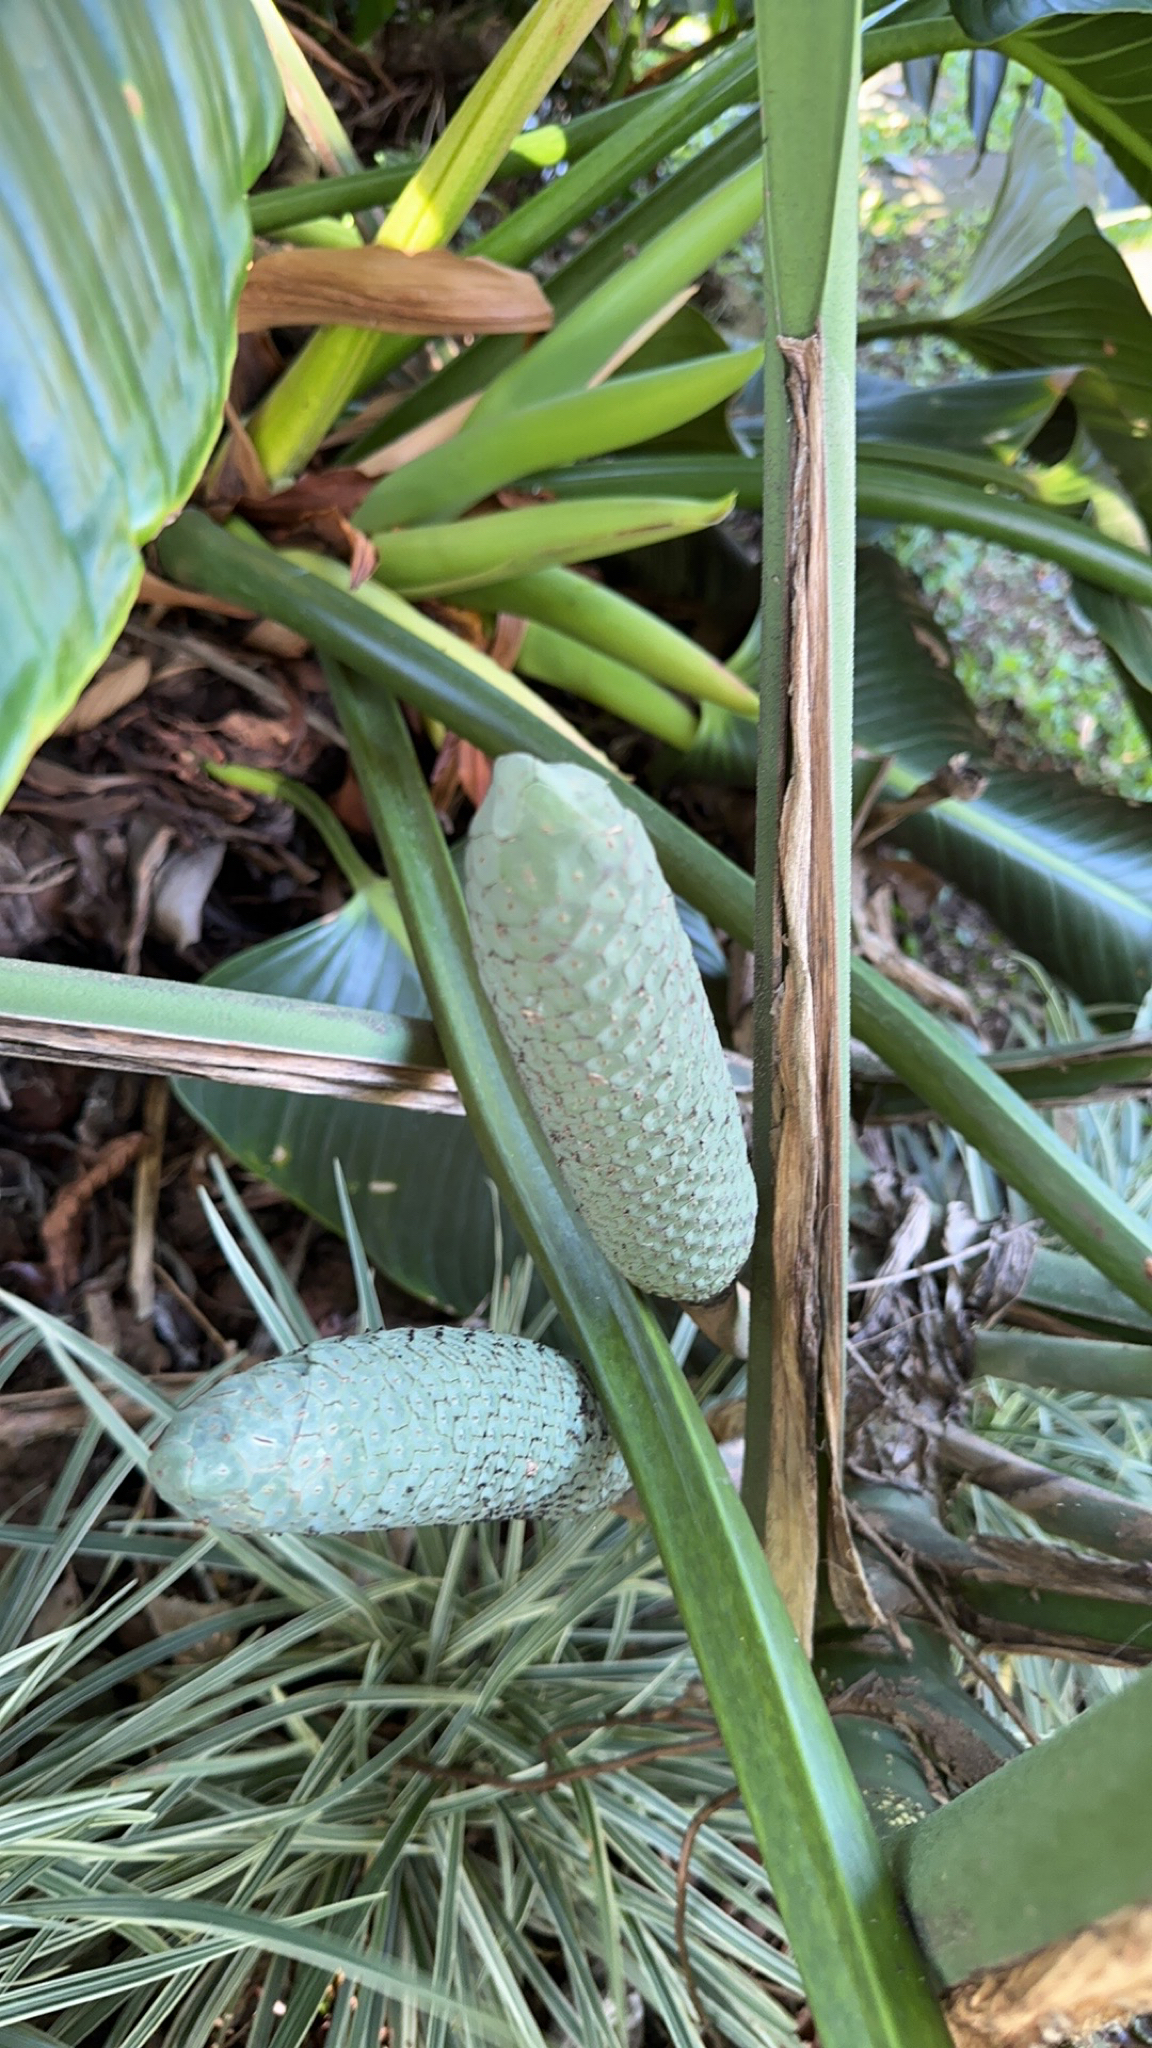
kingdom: Plantae
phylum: Tracheophyta
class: Liliopsida
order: Alismatales
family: Araceae
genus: Monstera
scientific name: Monstera deliciosa
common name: Cut-leaf-philodendron
